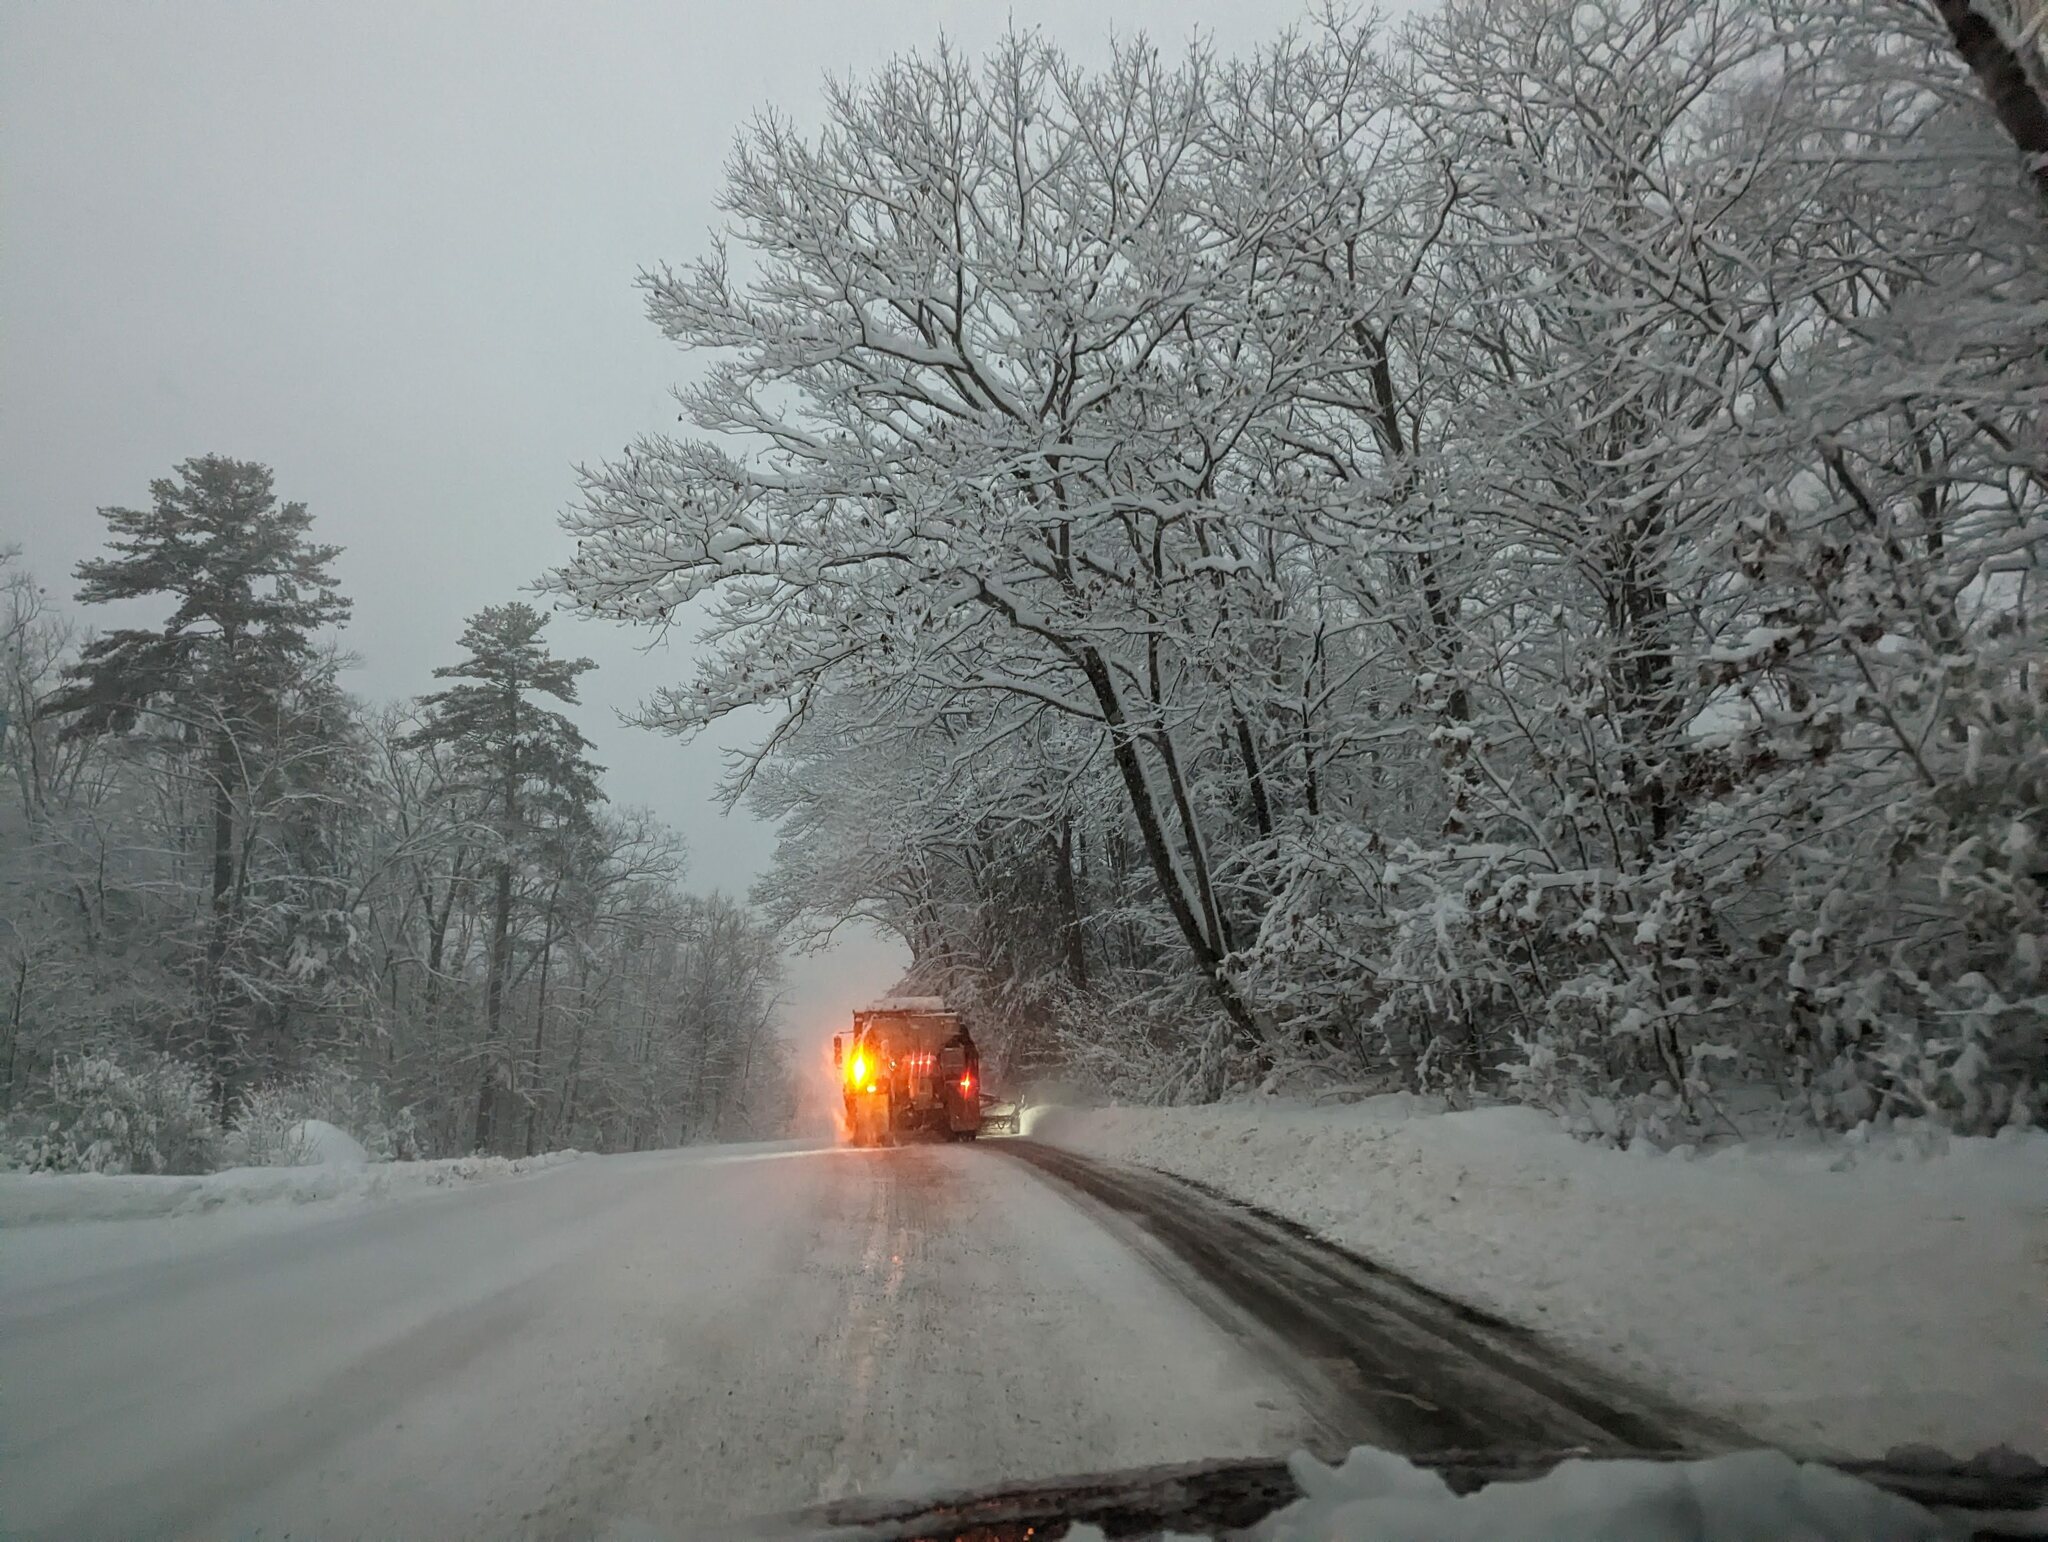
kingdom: Plantae
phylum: Tracheophyta
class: Pinopsida
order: Pinales
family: Pinaceae
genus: Pinus
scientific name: Pinus strobus
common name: Weymouth pine
